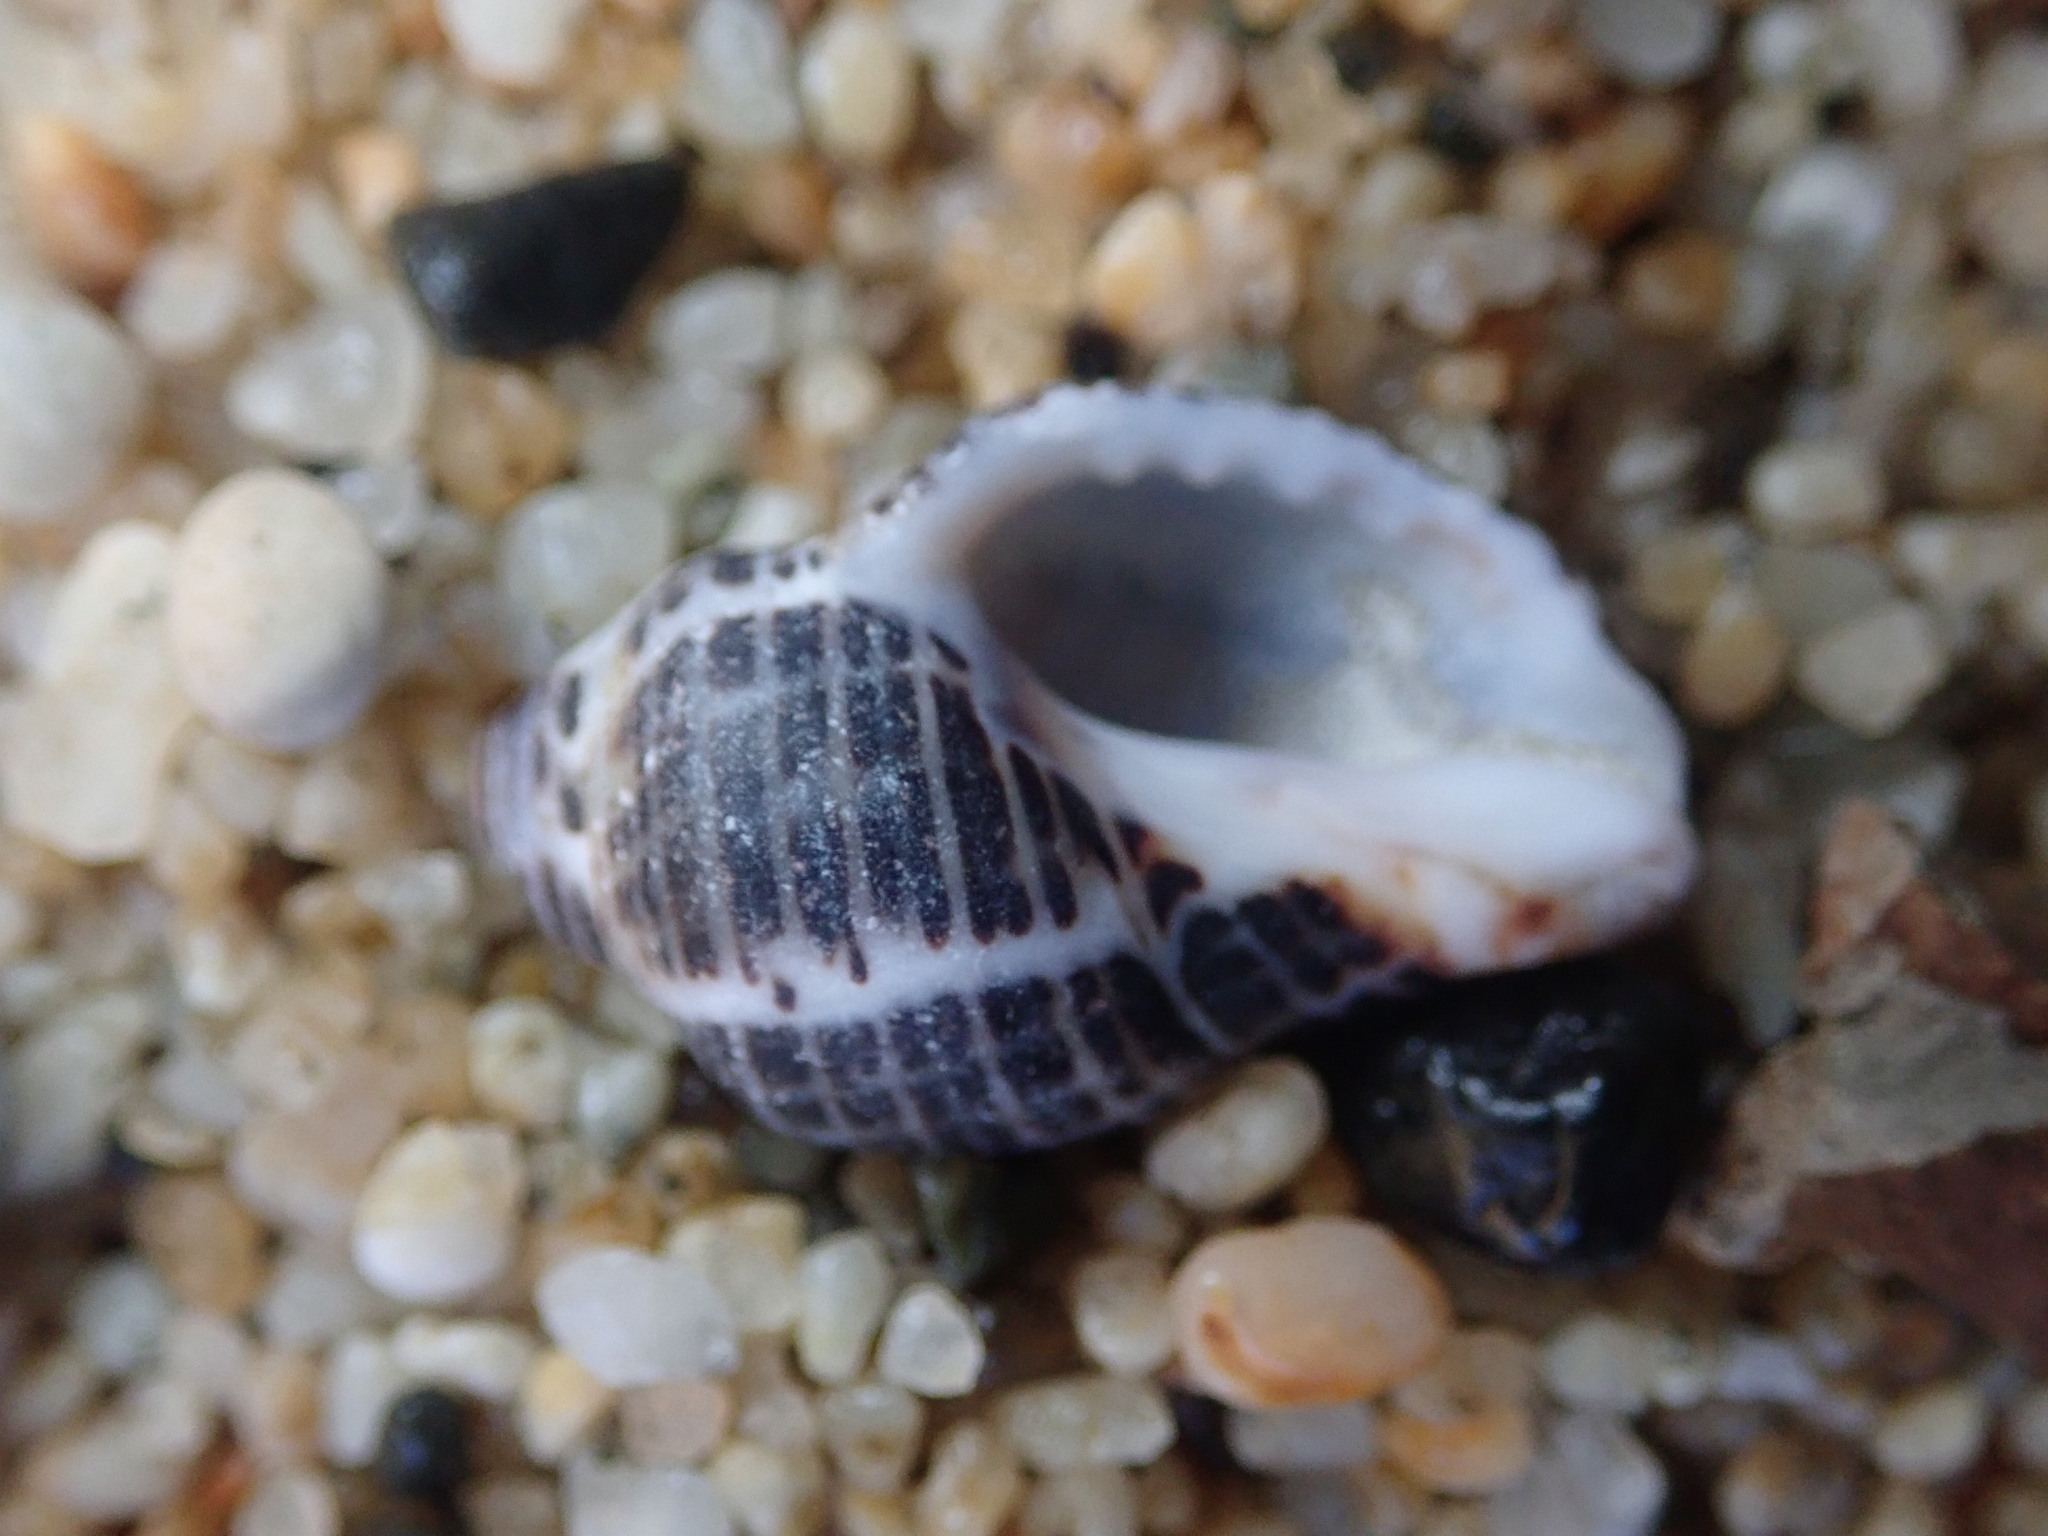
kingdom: Animalia
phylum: Mollusca
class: Gastropoda
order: Neogastropoda
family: Muricidae
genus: Acanthinucella
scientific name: Acanthinucella spirata
